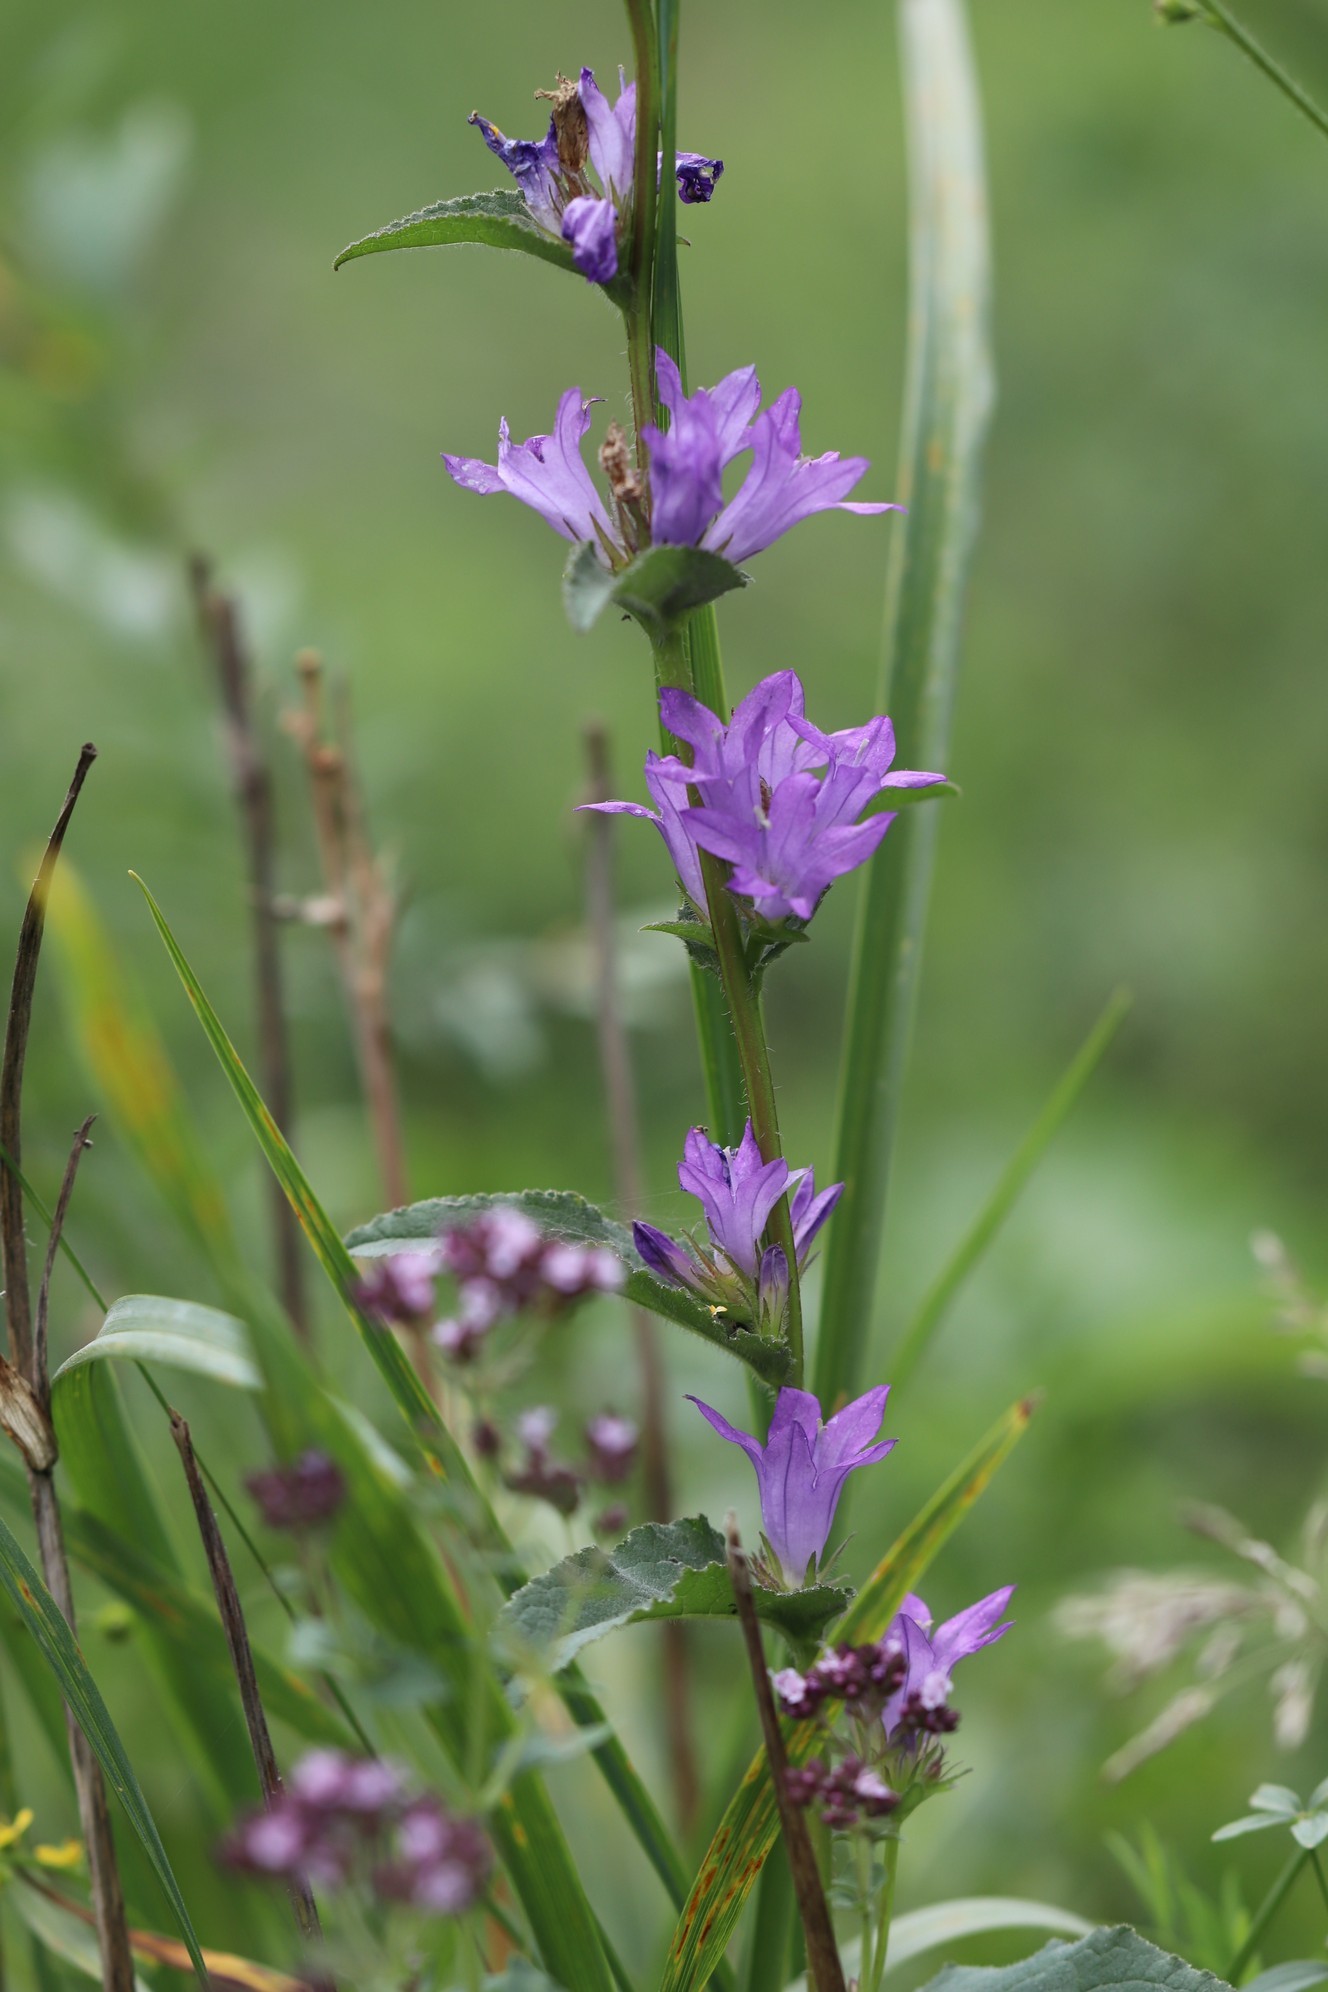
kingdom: Plantae
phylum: Tracheophyta
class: Magnoliopsida
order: Asterales
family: Campanulaceae
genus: Campanula
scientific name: Campanula glomerata
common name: Clustered bellflower
